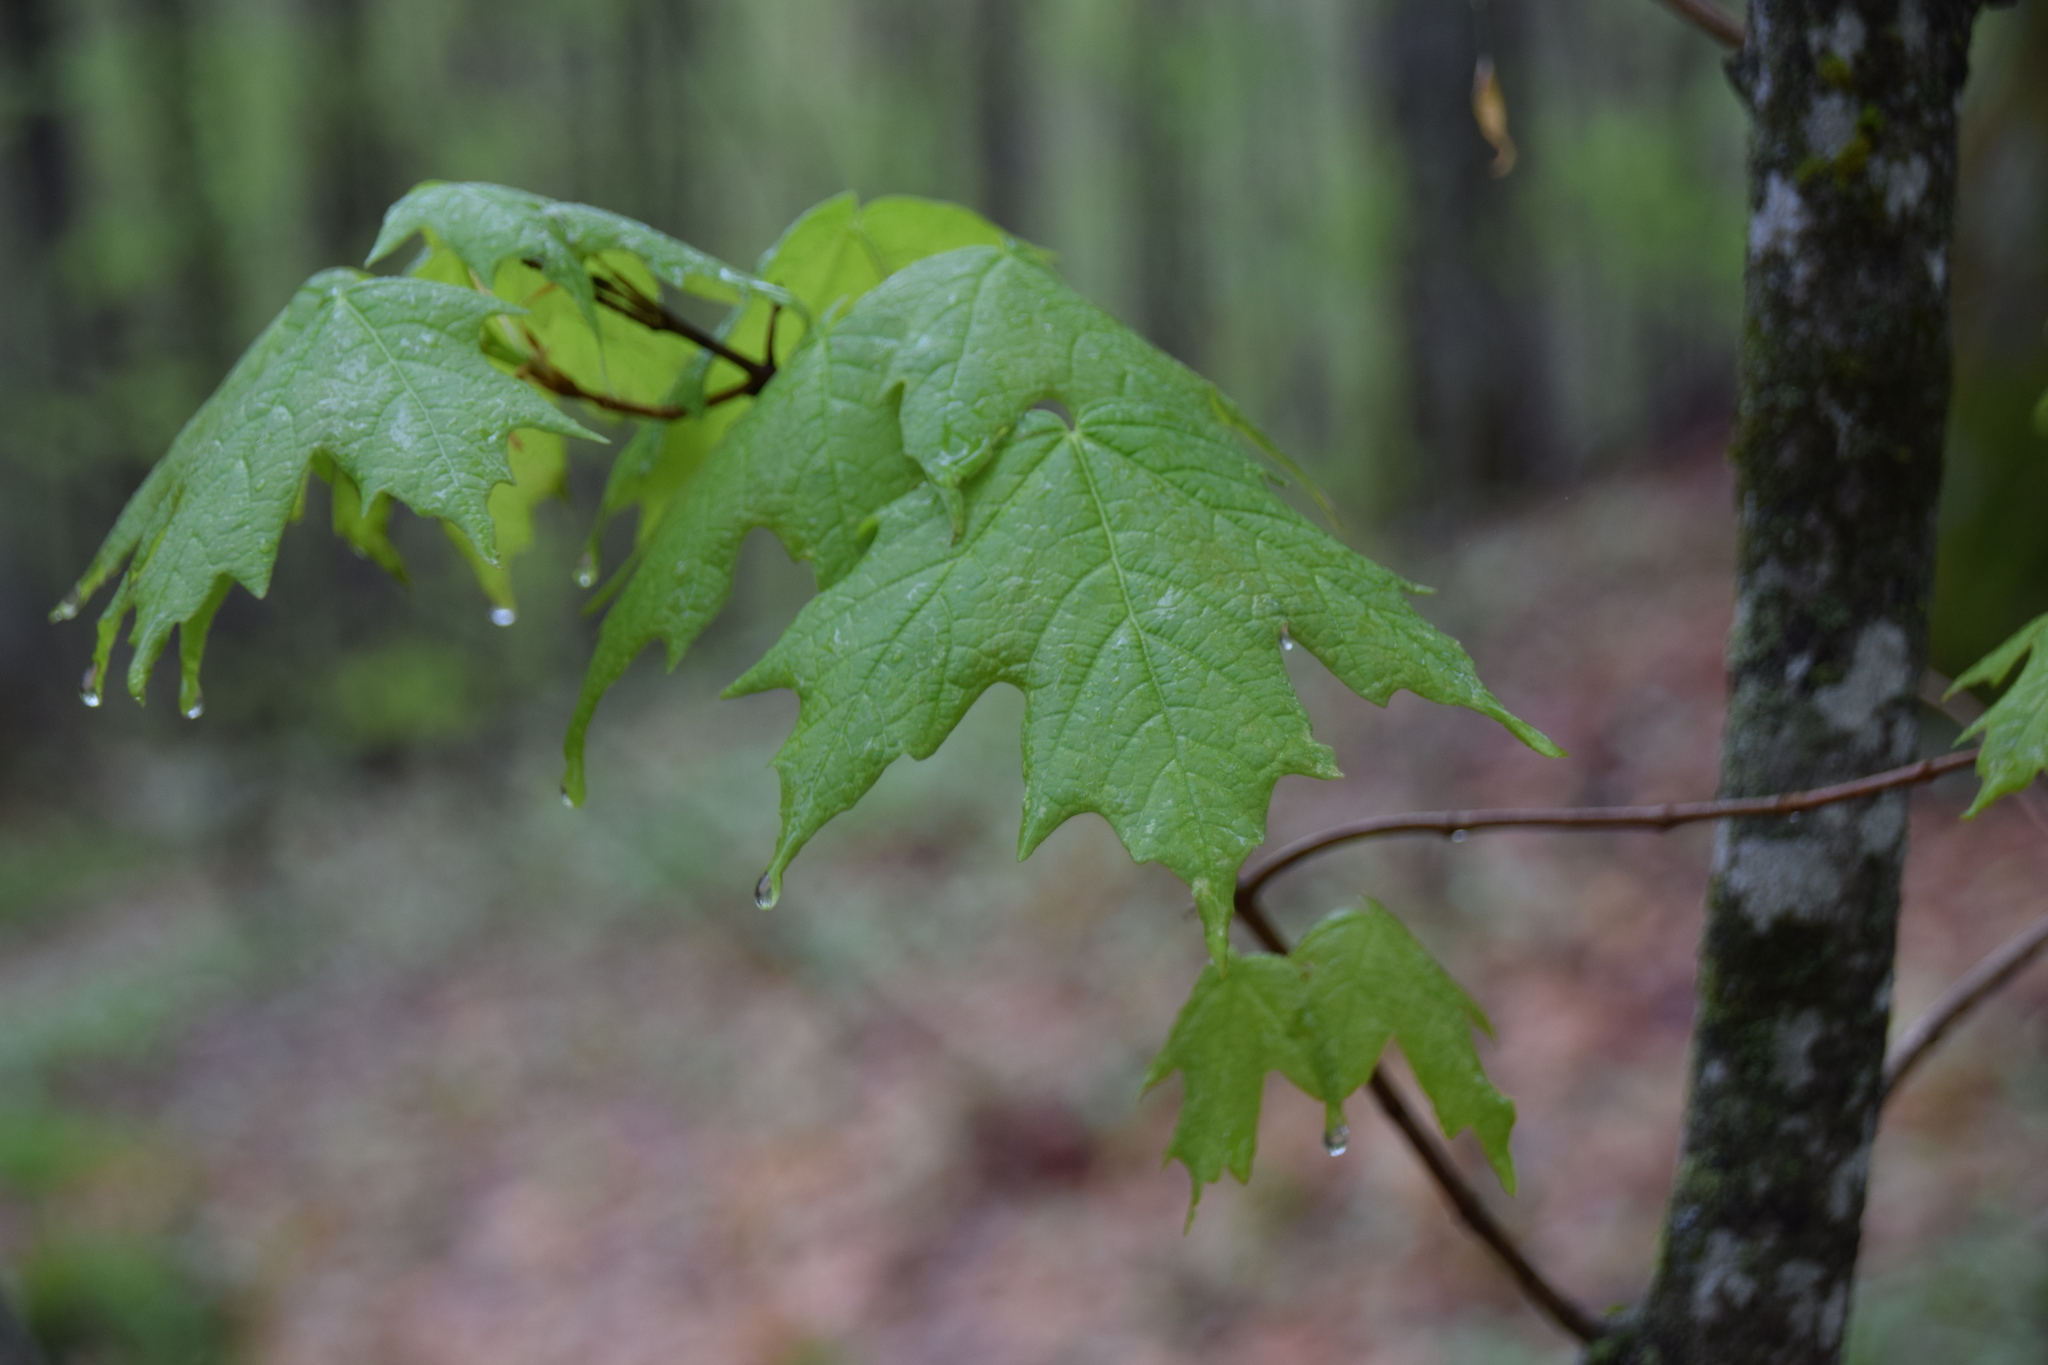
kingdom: Plantae
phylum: Tracheophyta
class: Magnoliopsida
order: Sapindales
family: Sapindaceae
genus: Acer
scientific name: Acer saccharum
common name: Sugar maple
